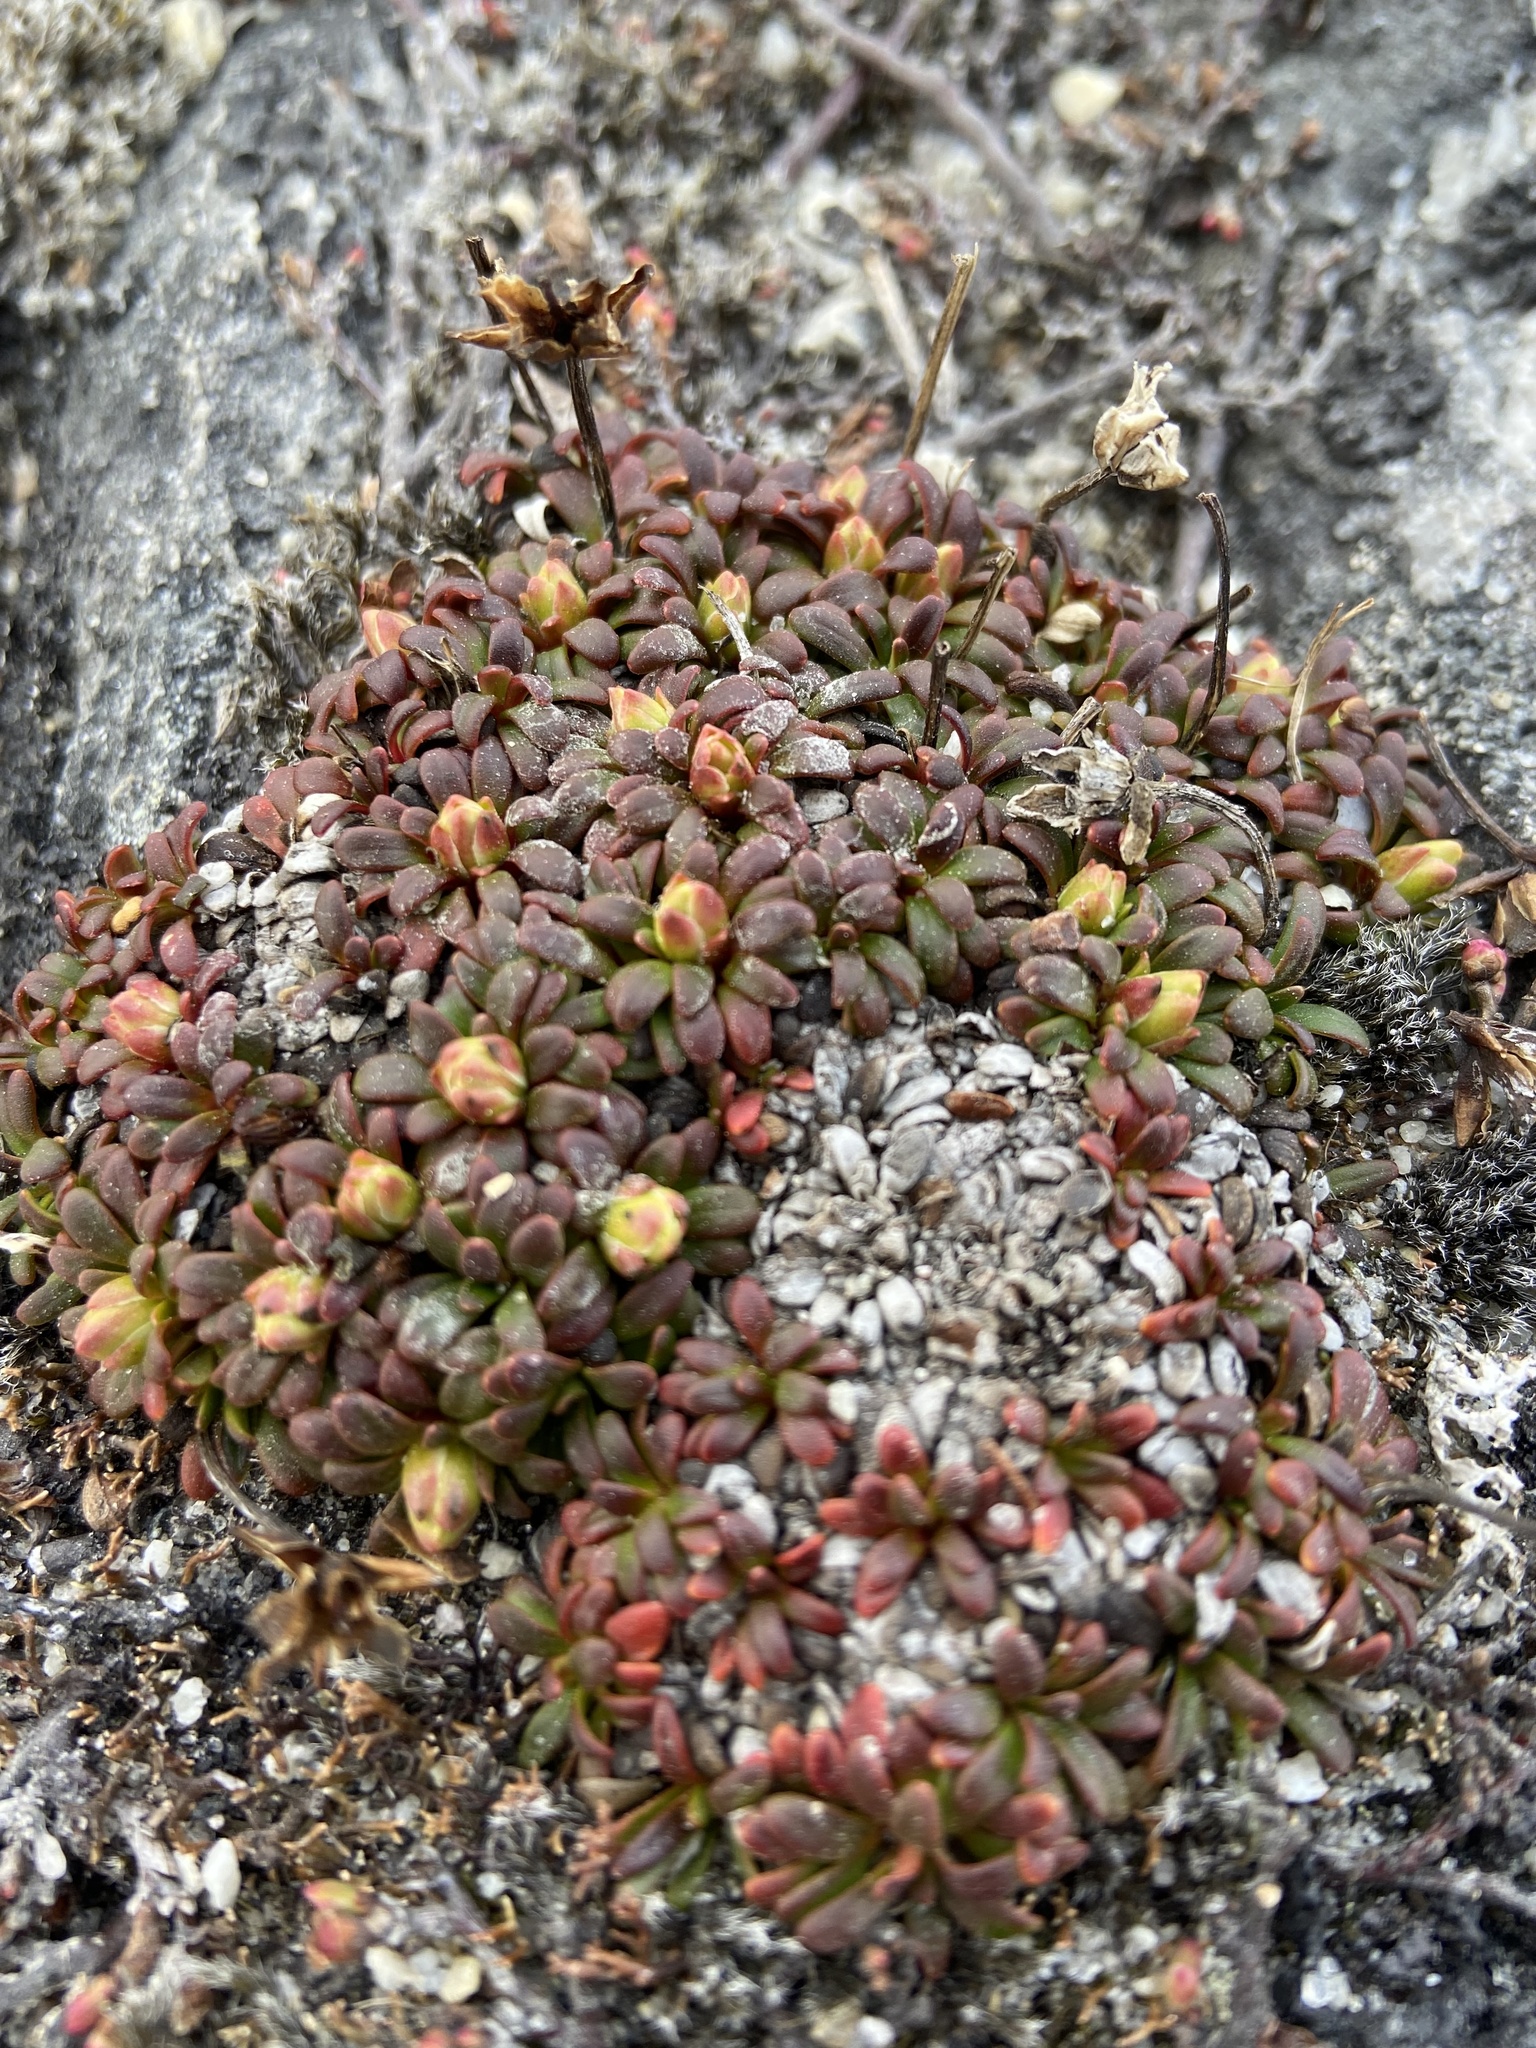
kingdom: Plantae
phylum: Tracheophyta
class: Magnoliopsida
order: Ericales
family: Diapensiaceae
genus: Diapensia
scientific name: Diapensia lapponica
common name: Diapensia
